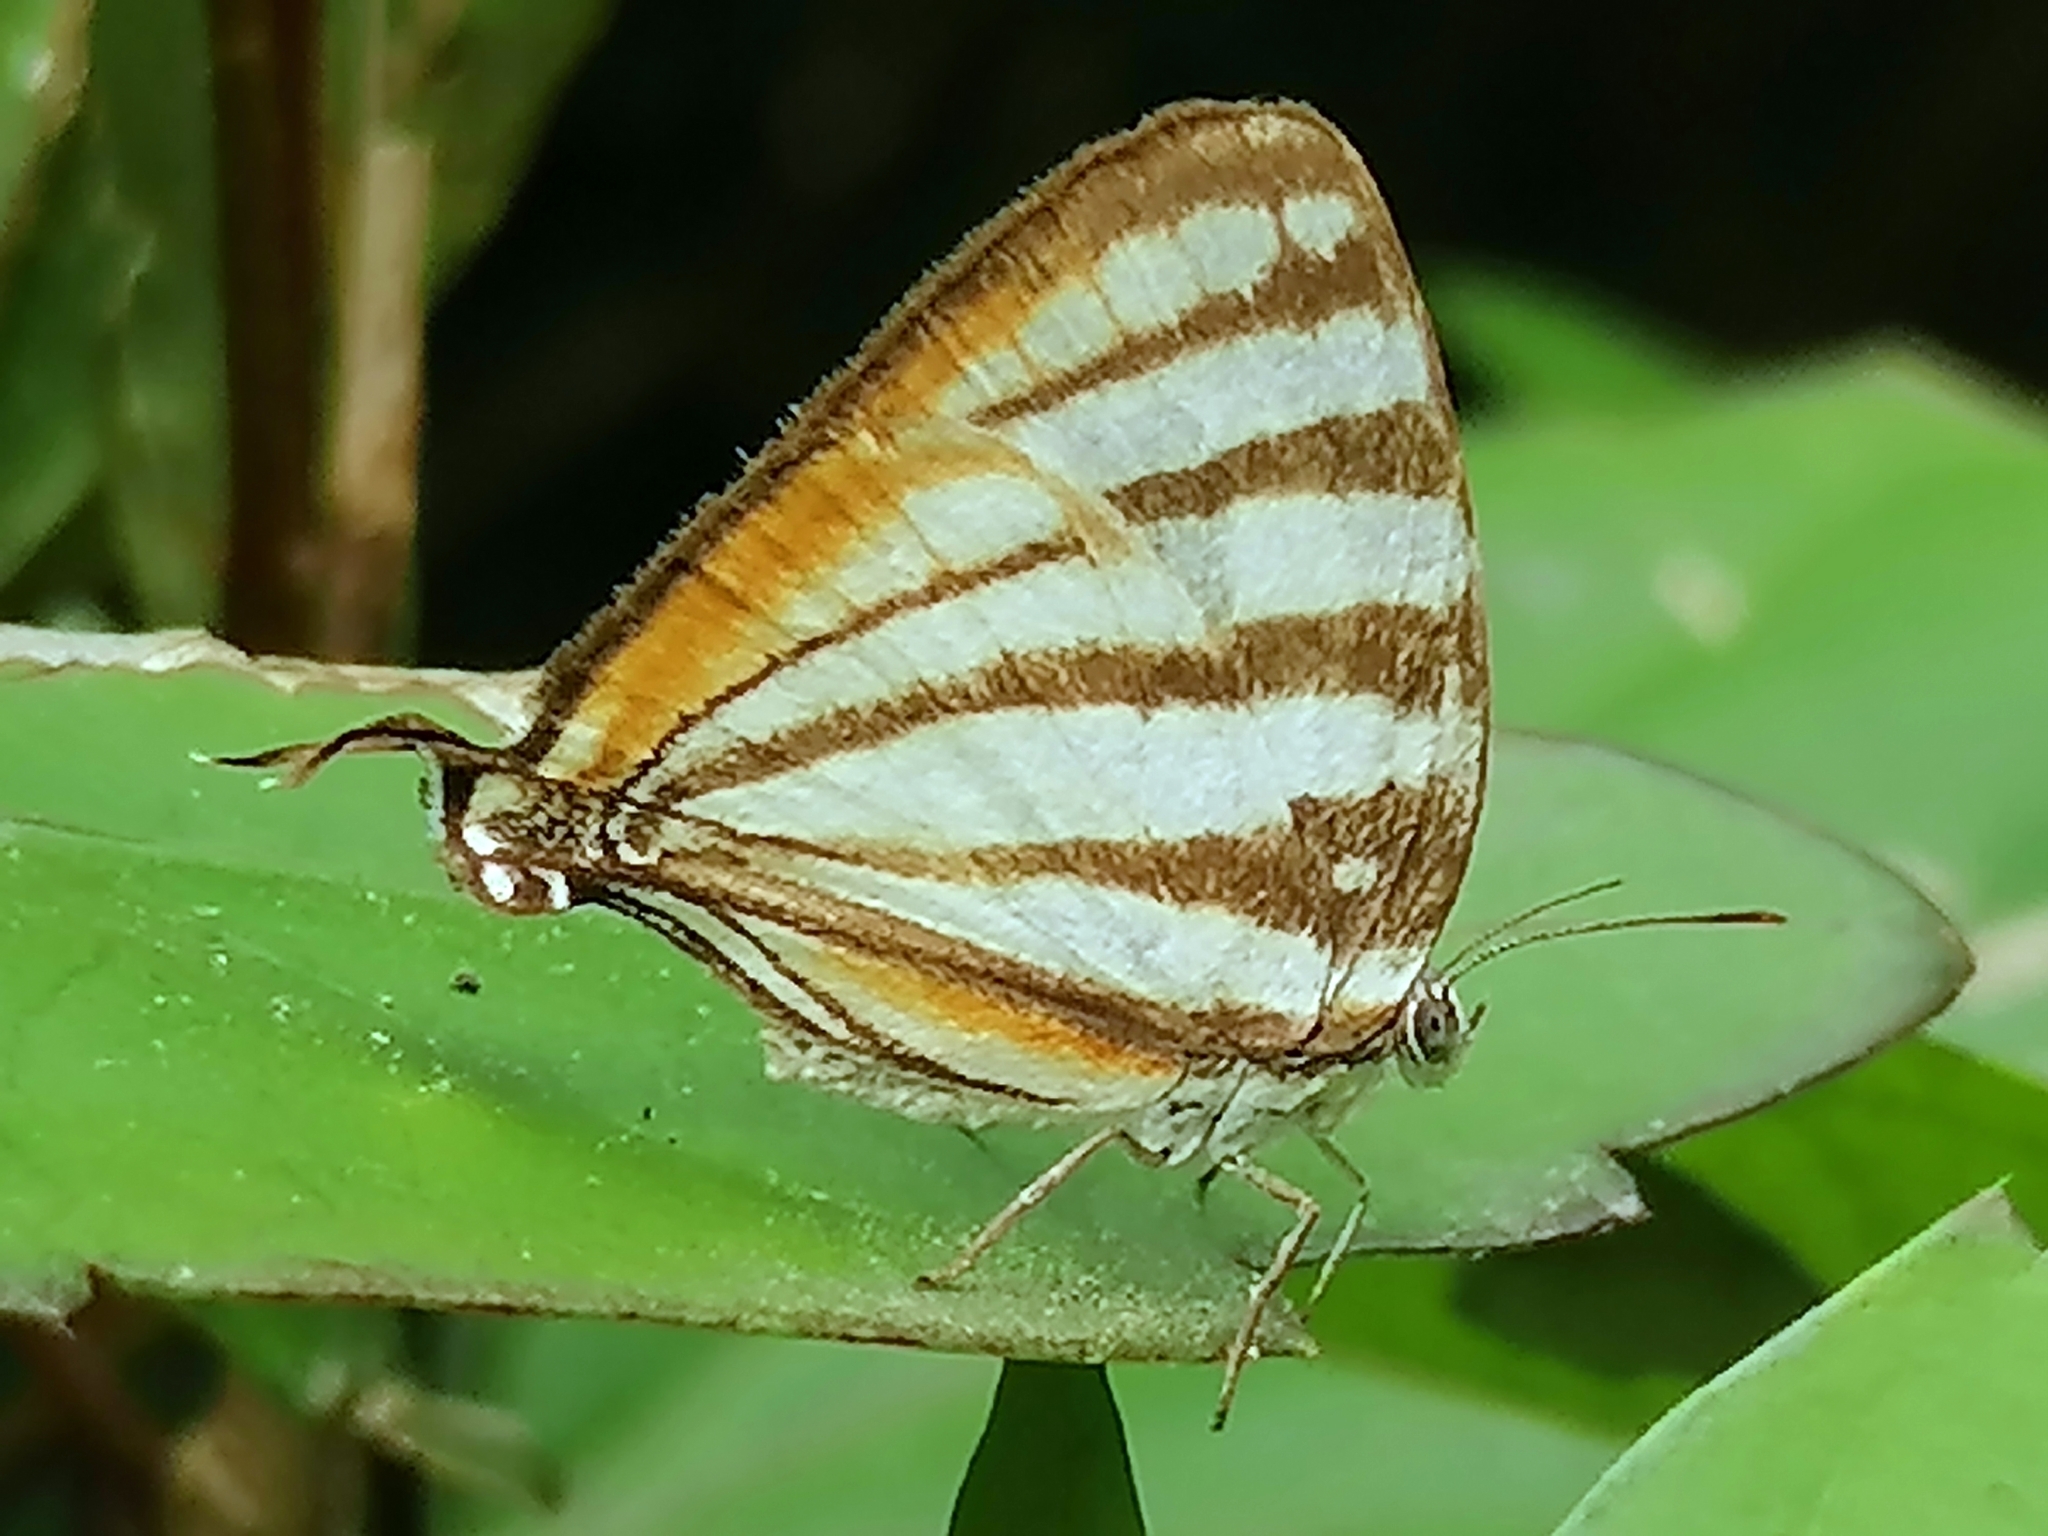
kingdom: Animalia
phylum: Arthropoda
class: Insecta
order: Lepidoptera
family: Lycaenidae
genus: Arawacus
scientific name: Arawacus lincoides
